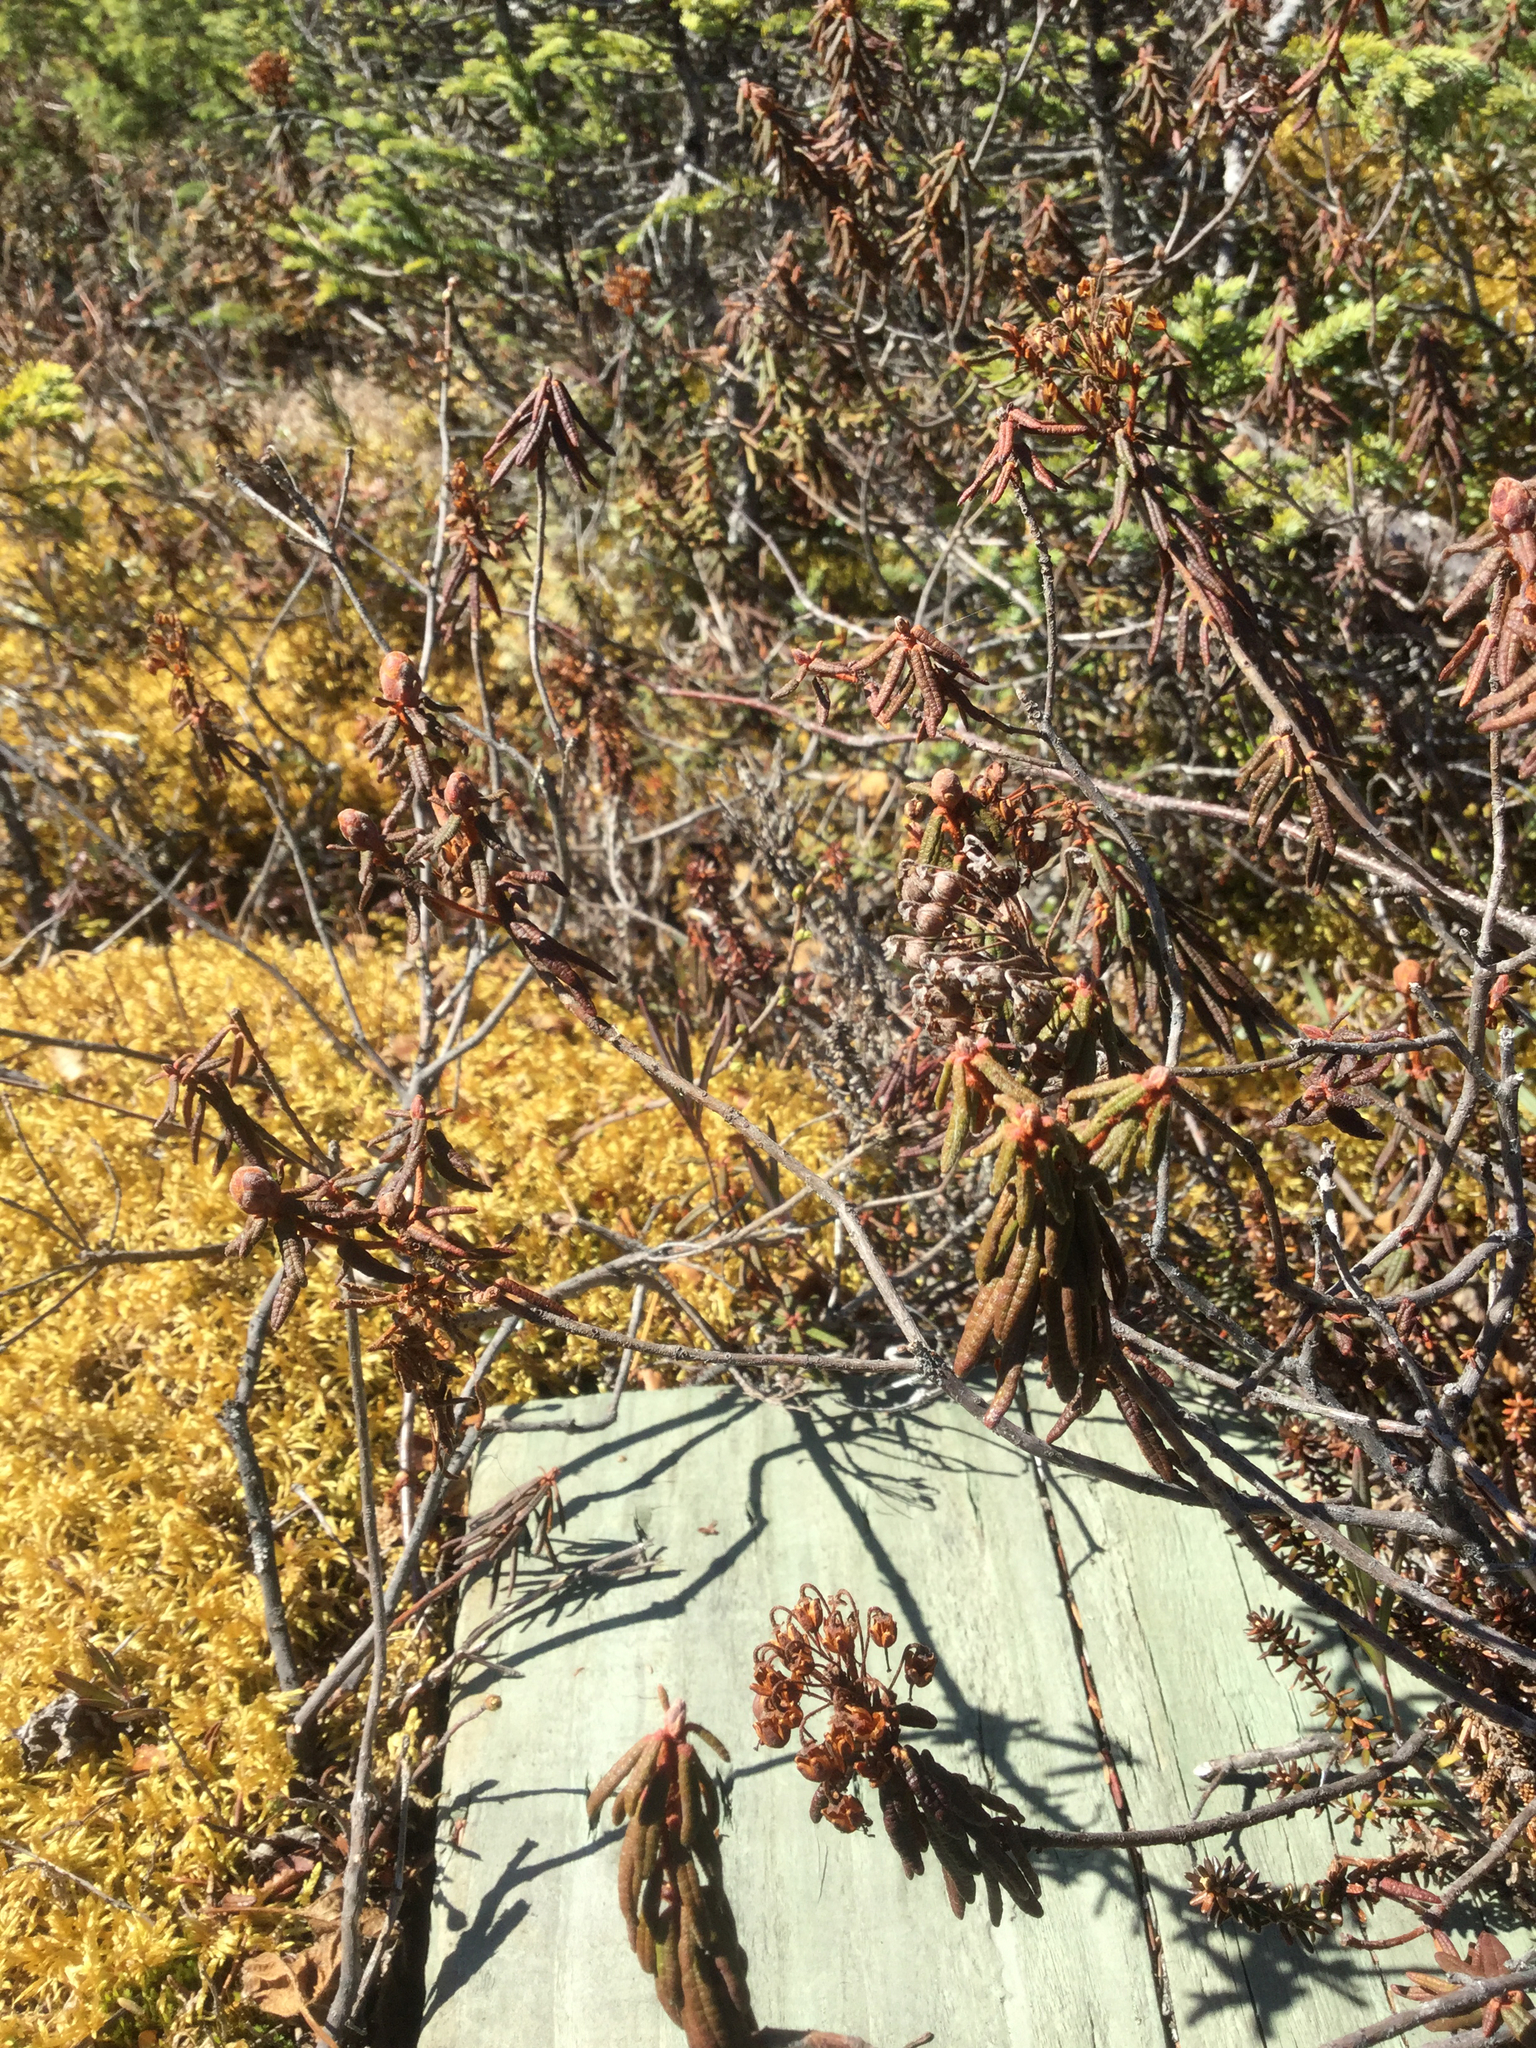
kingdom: Plantae
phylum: Tracheophyta
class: Magnoliopsida
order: Ericales
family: Ericaceae
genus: Rhododendron
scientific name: Rhododendron tomentosum
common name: Marsh labrador tea
